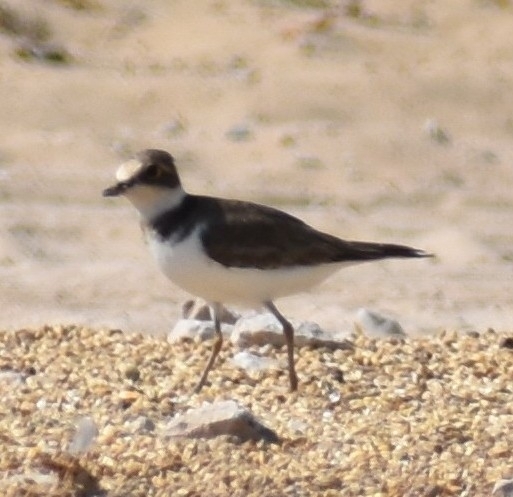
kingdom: Animalia
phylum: Chordata
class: Aves
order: Charadriiformes
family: Charadriidae
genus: Charadrius
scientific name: Charadrius dubius
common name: Little ringed plover
